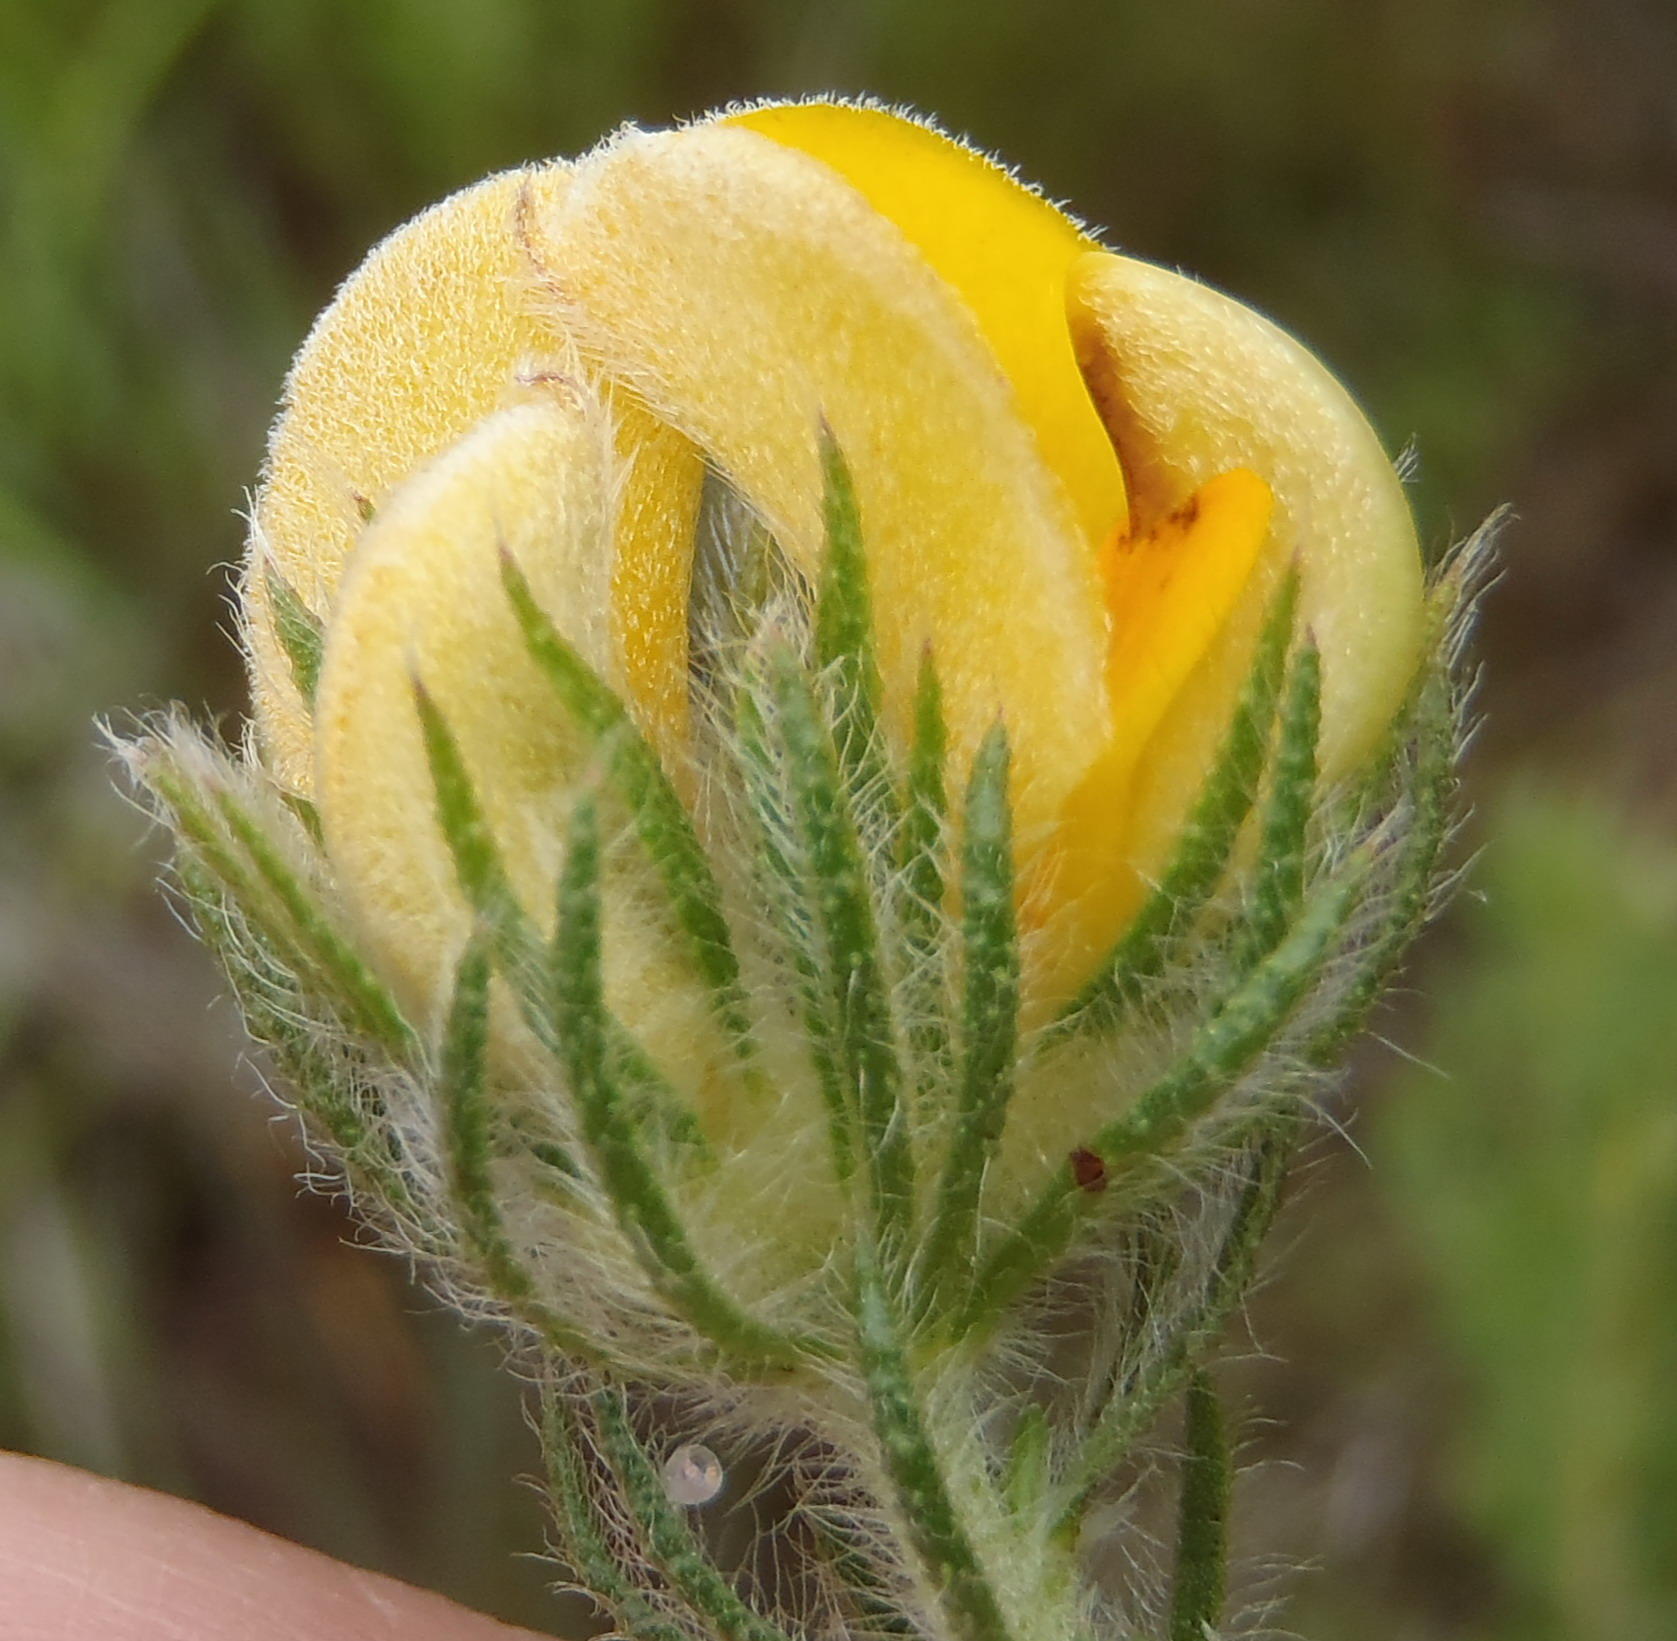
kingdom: Plantae
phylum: Tracheophyta
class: Magnoliopsida
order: Fabales
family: Fabaceae
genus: Aspalathus
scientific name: Aspalathus ciliaris
